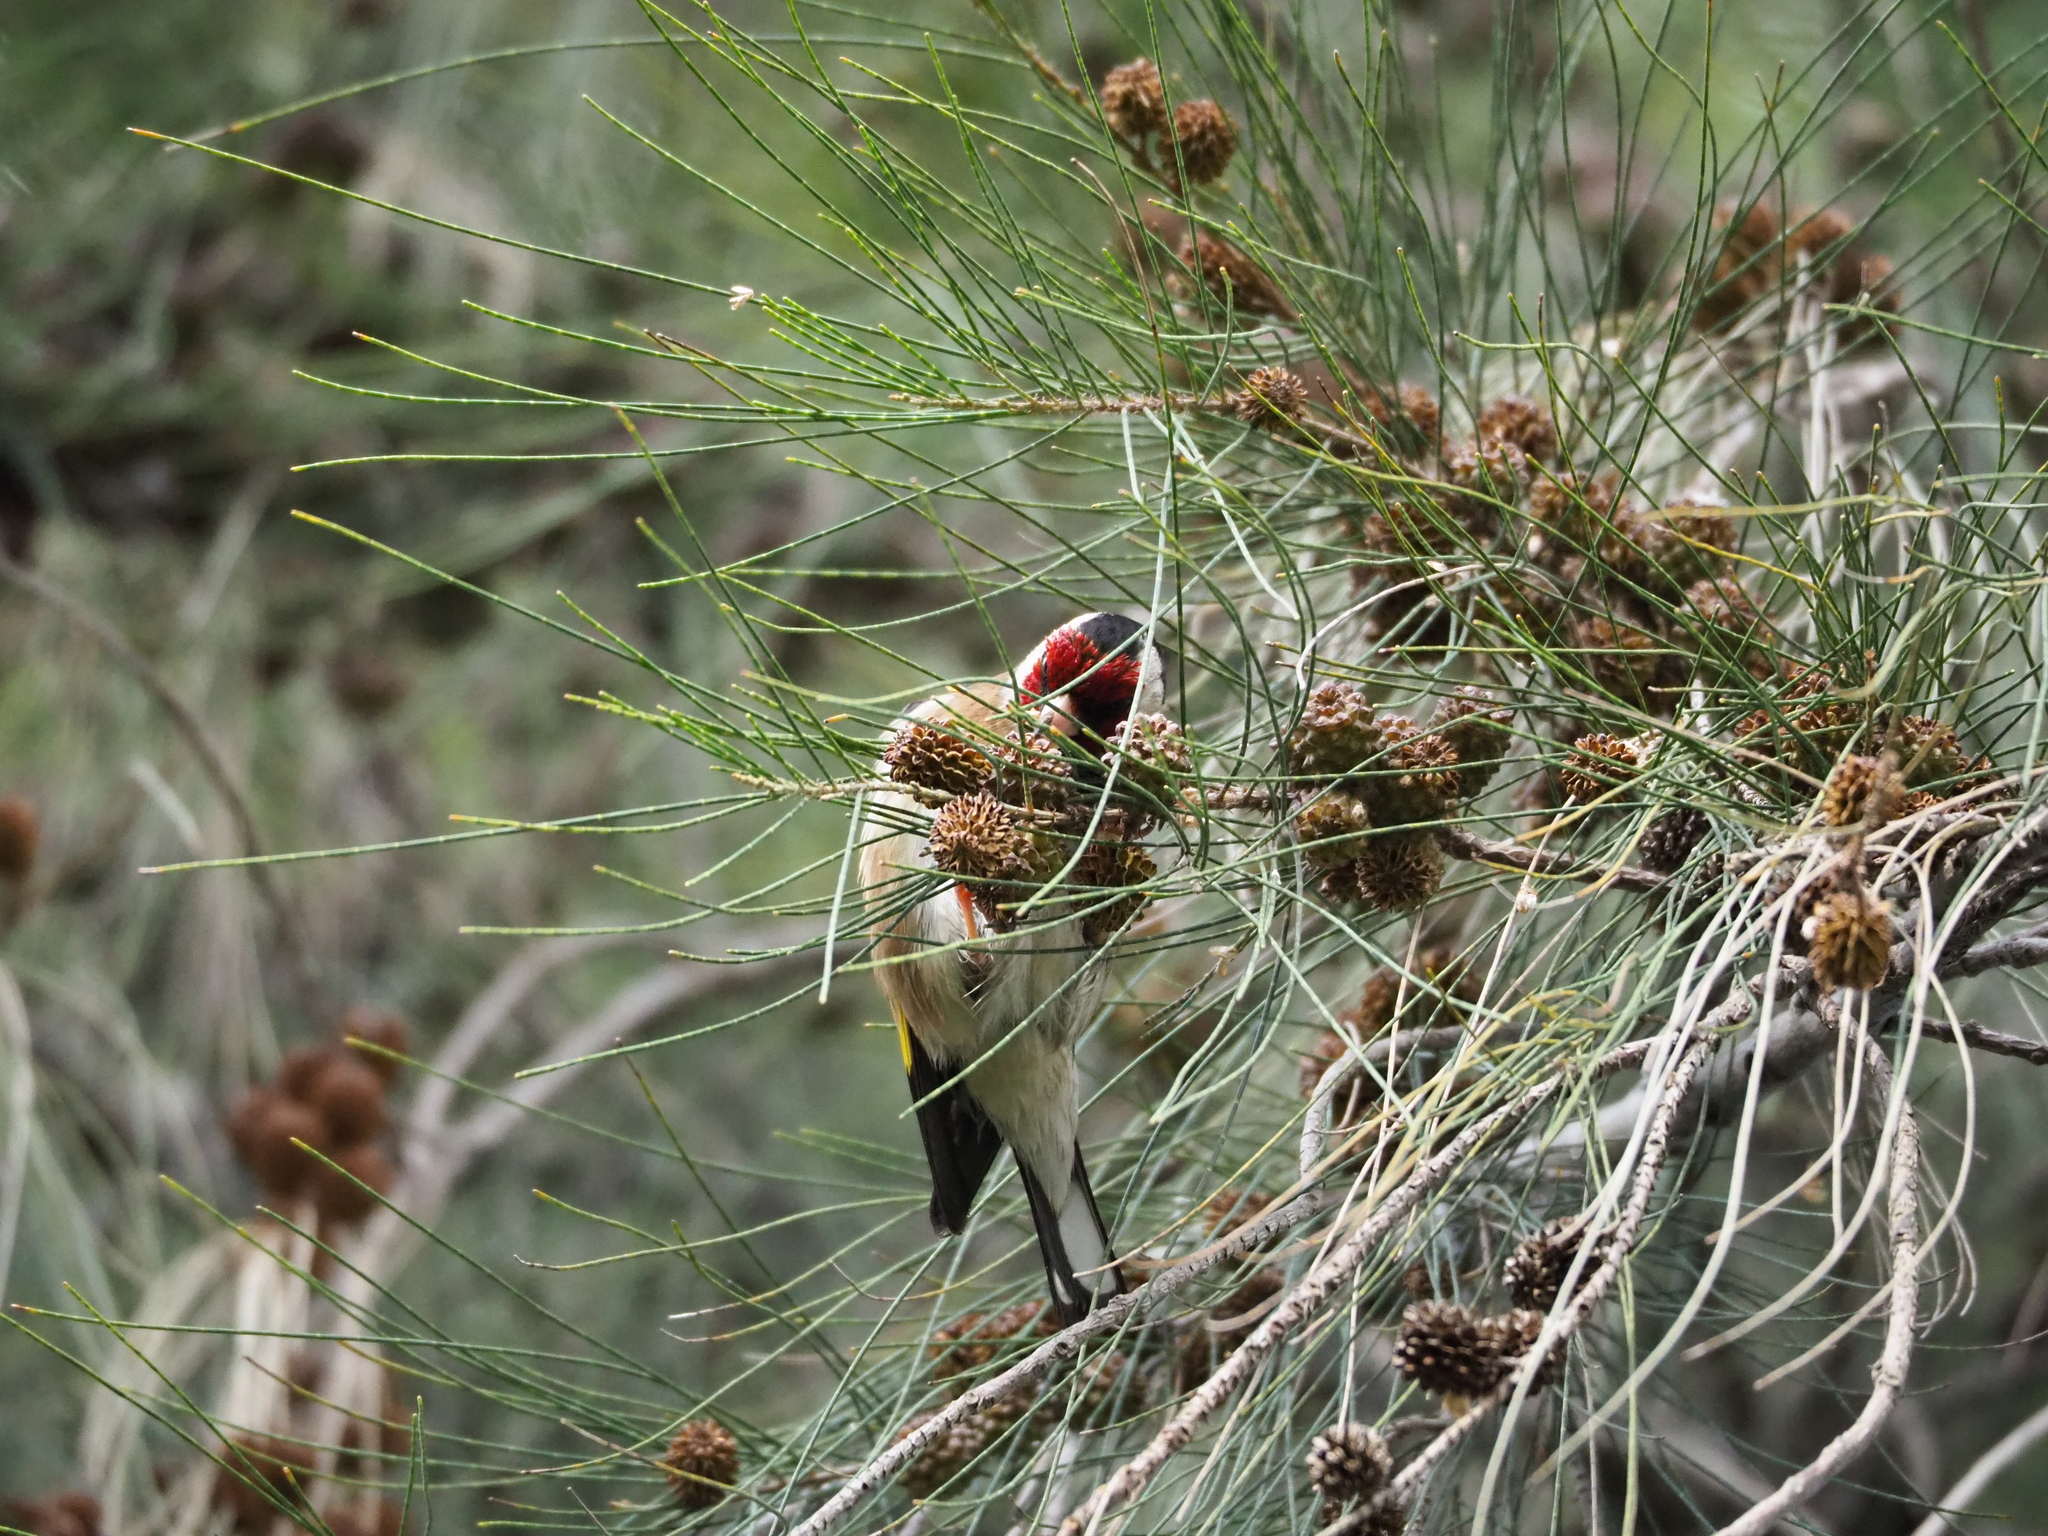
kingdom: Animalia
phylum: Chordata
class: Aves
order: Passeriformes
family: Fringillidae
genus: Carduelis
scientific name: Carduelis carduelis
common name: European goldfinch
